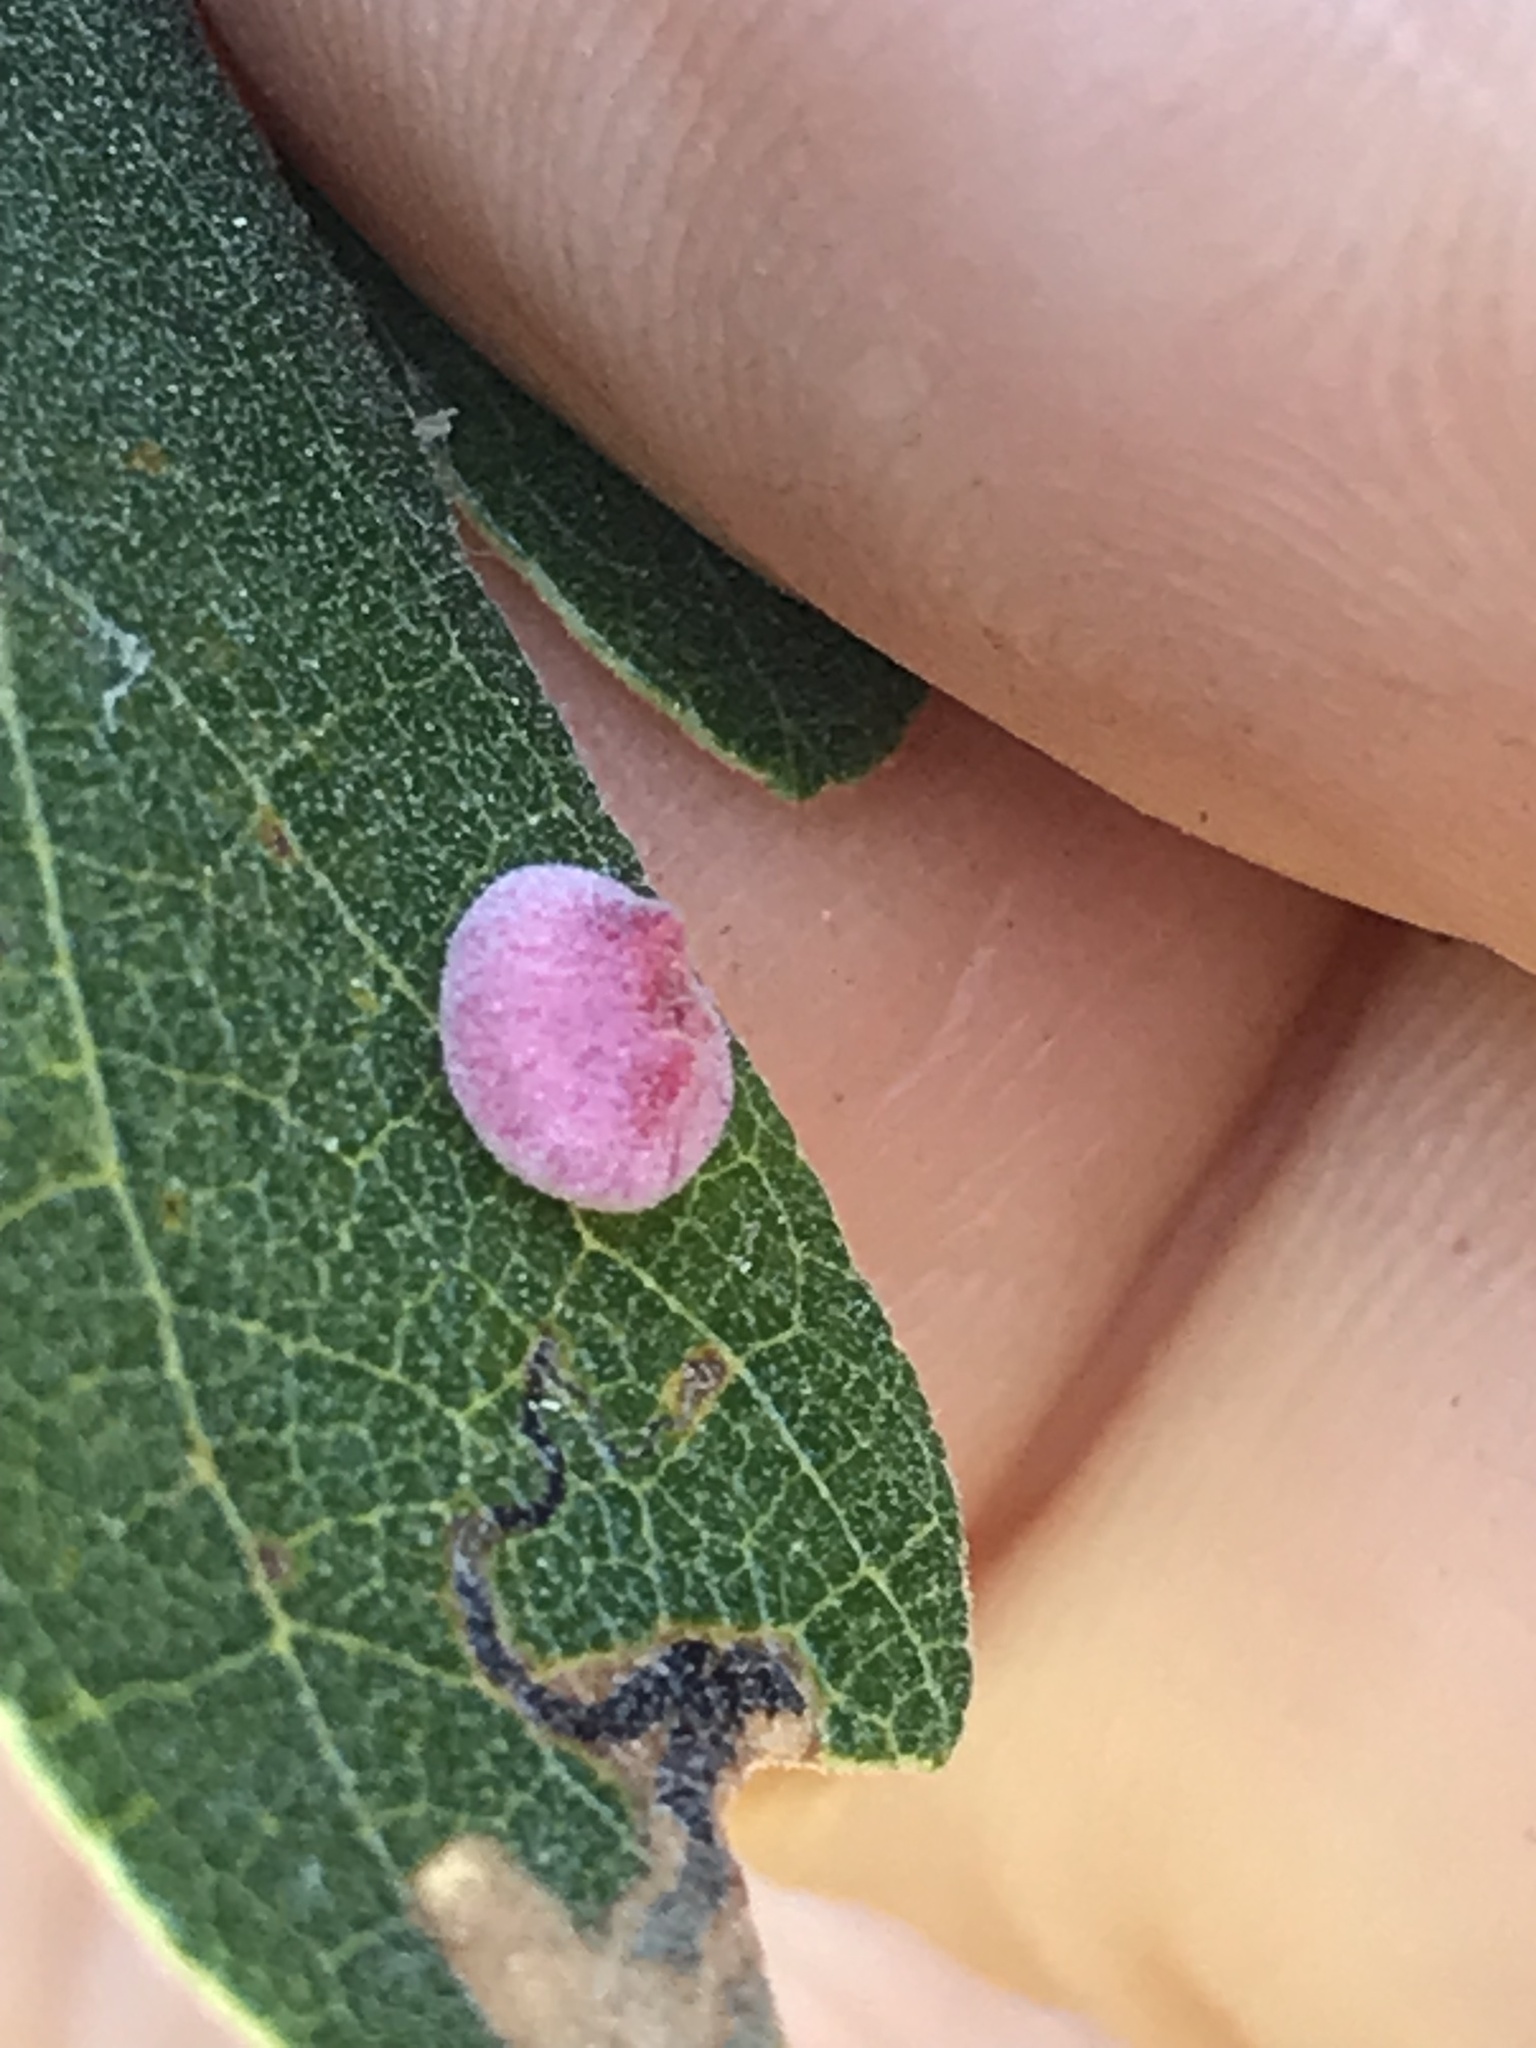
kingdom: Animalia
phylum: Arthropoda
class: Insecta
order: Hymenoptera
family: Cynipidae
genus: Andricus
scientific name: Andricus
